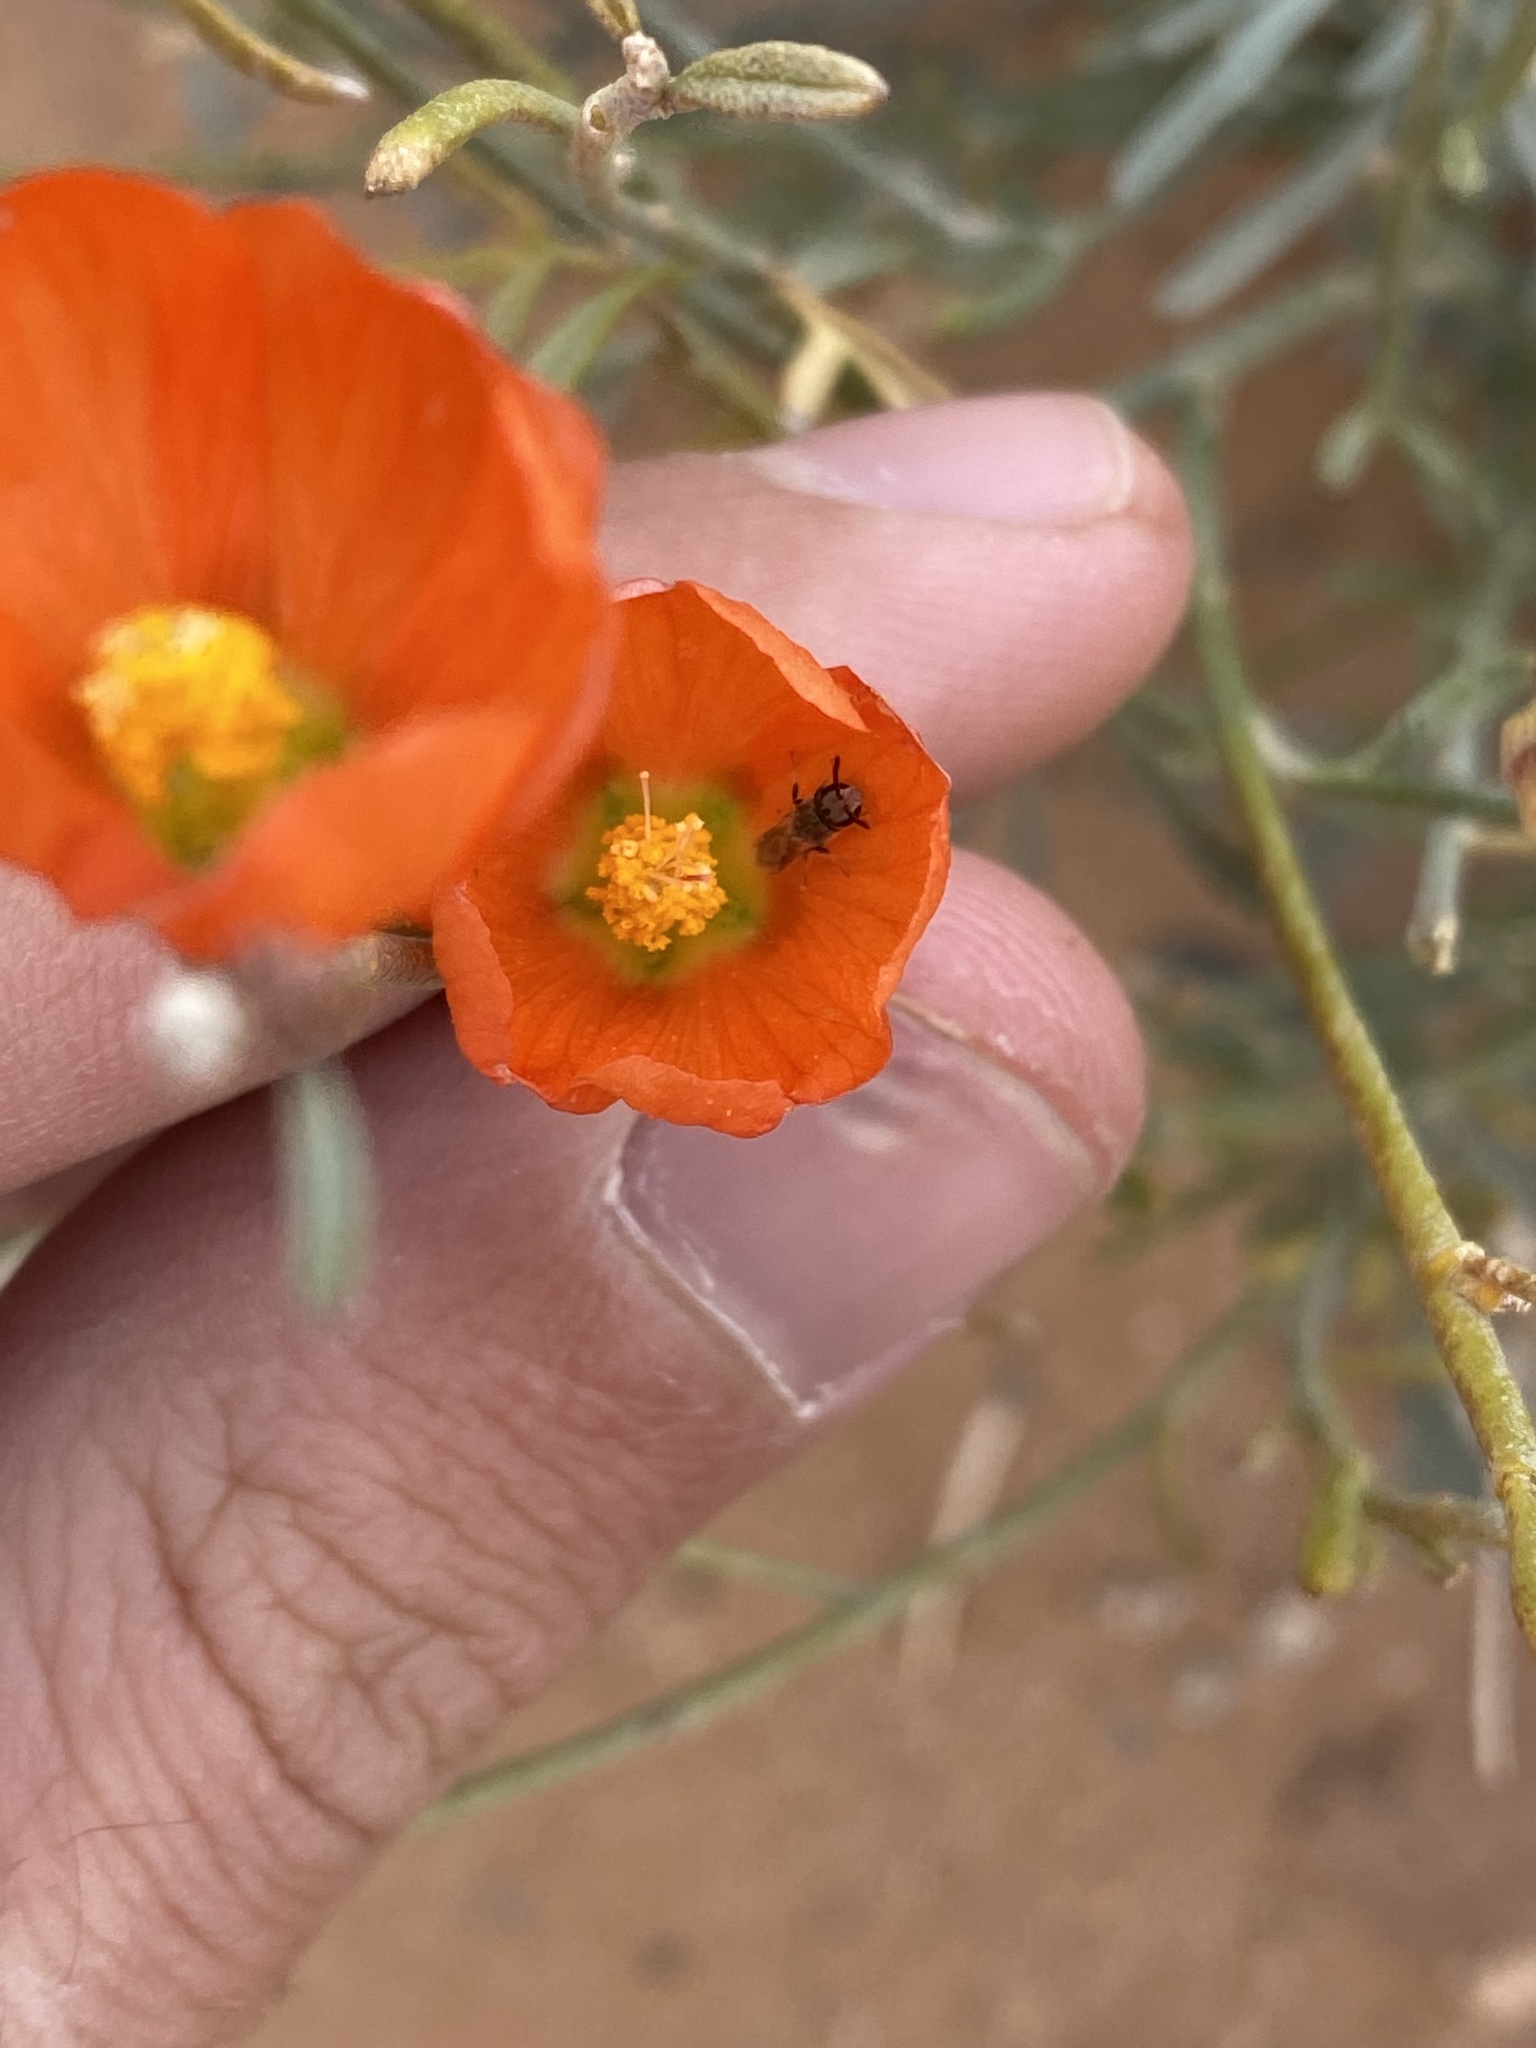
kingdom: Animalia
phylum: Arthropoda
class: Insecta
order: Hymenoptera
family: Halictidae
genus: Dialictus
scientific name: Dialictus
